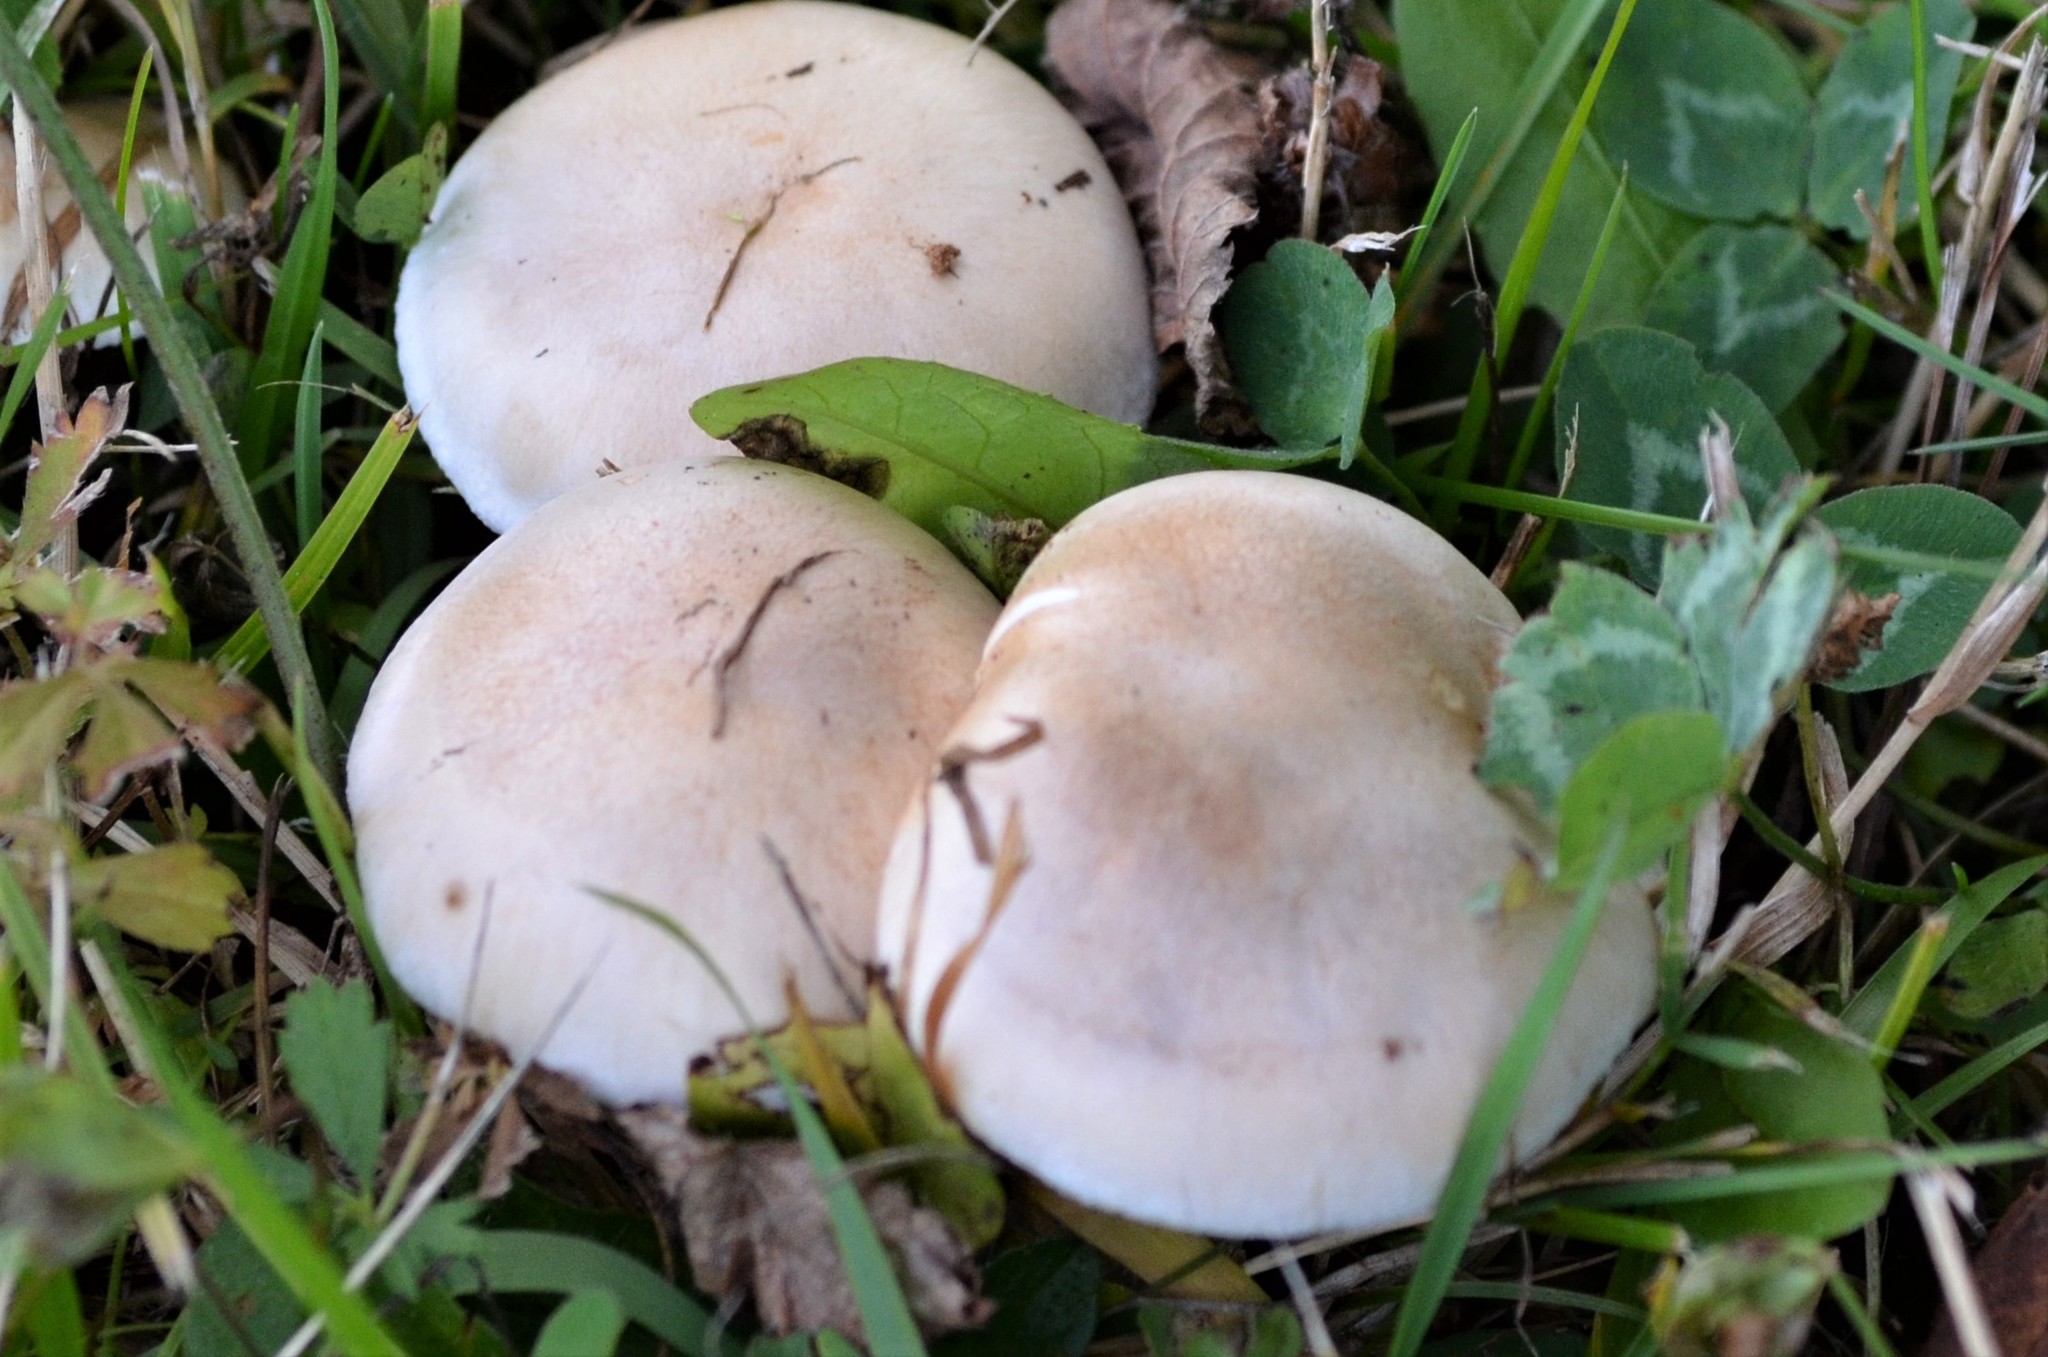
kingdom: Fungi
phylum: Basidiomycota
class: Agaricomycetes
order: Agaricales
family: Tricholomataceae
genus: Lepista
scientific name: Lepista glaucocana
